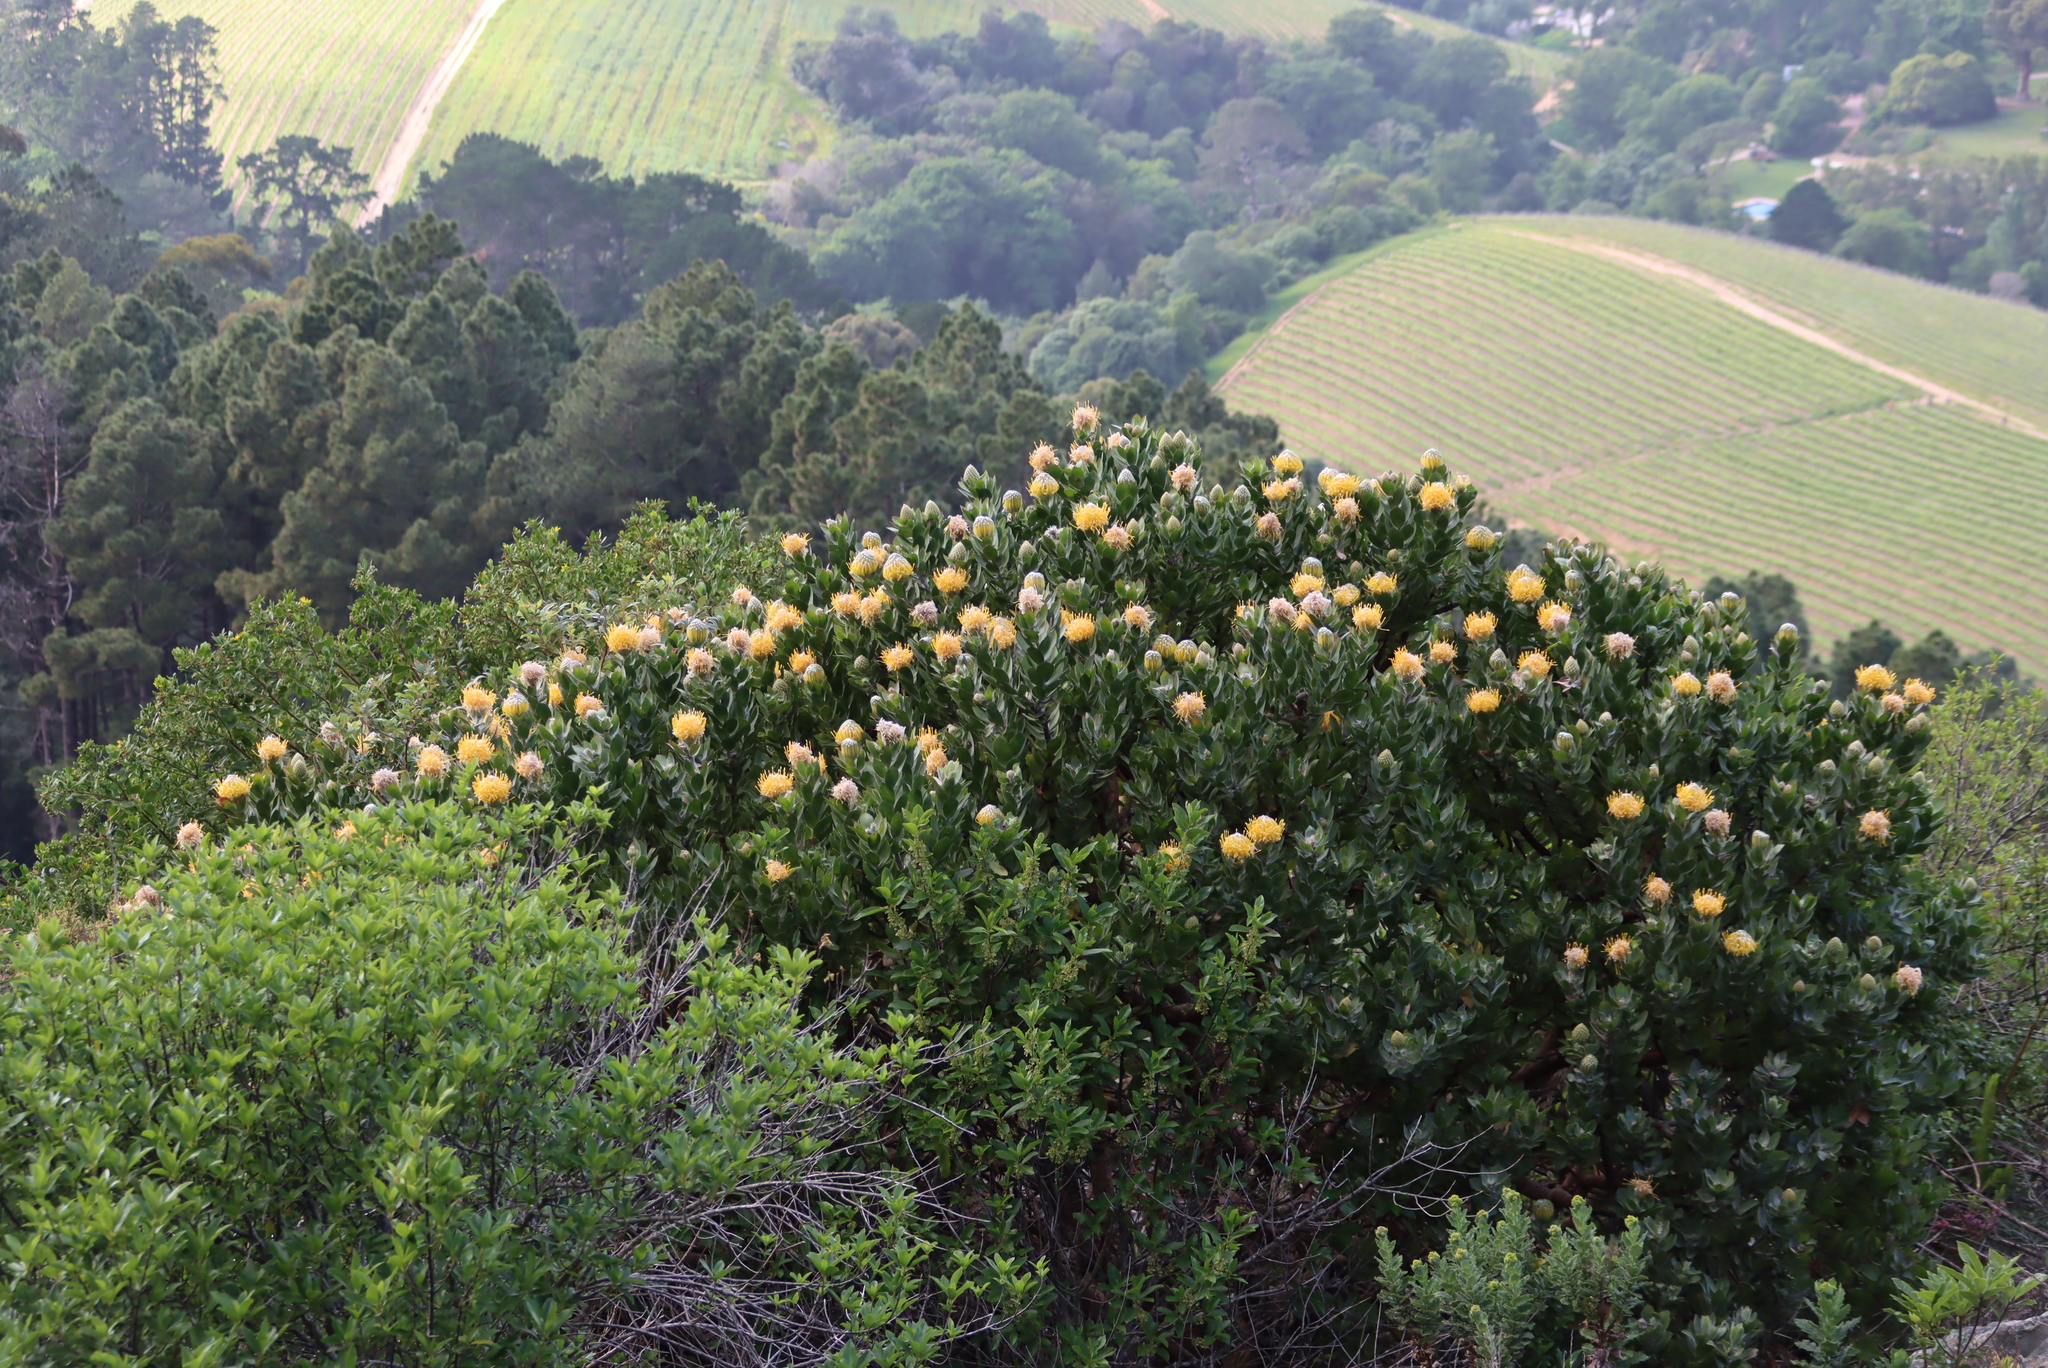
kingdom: Plantae
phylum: Tracheophyta
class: Magnoliopsida
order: Proteales
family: Proteaceae
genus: Leucospermum
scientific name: Leucospermum conocarpodendron
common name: Tree pincushion
